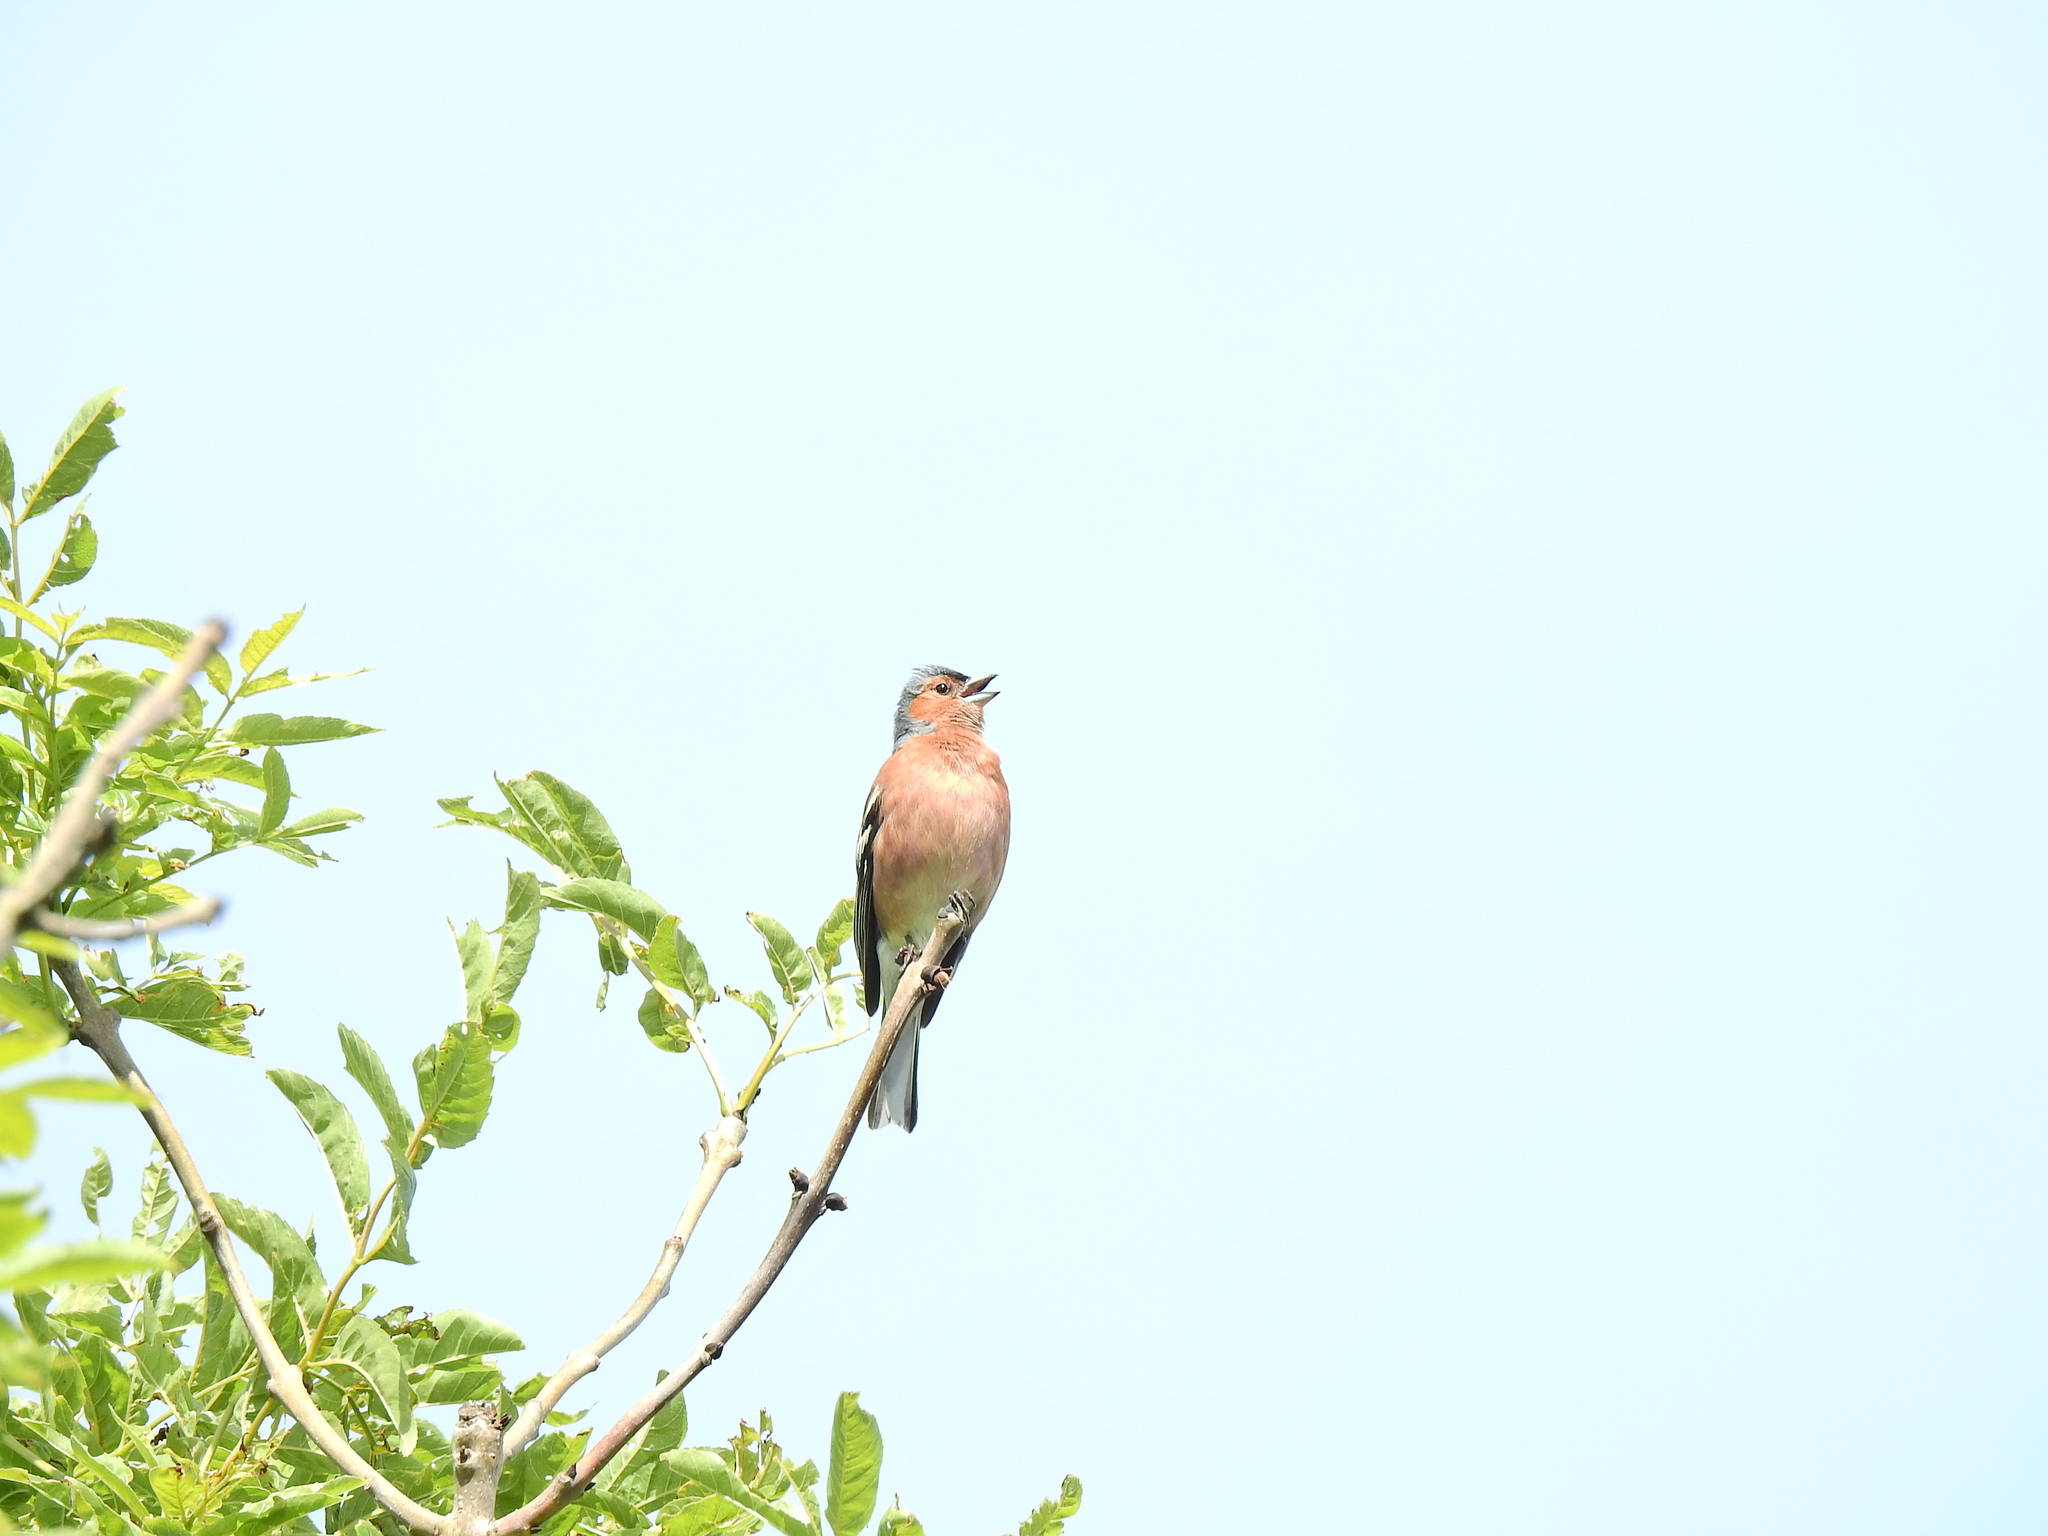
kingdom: Animalia
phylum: Chordata
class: Aves
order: Passeriformes
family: Fringillidae
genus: Fringilla
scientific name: Fringilla coelebs
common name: Common chaffinch
